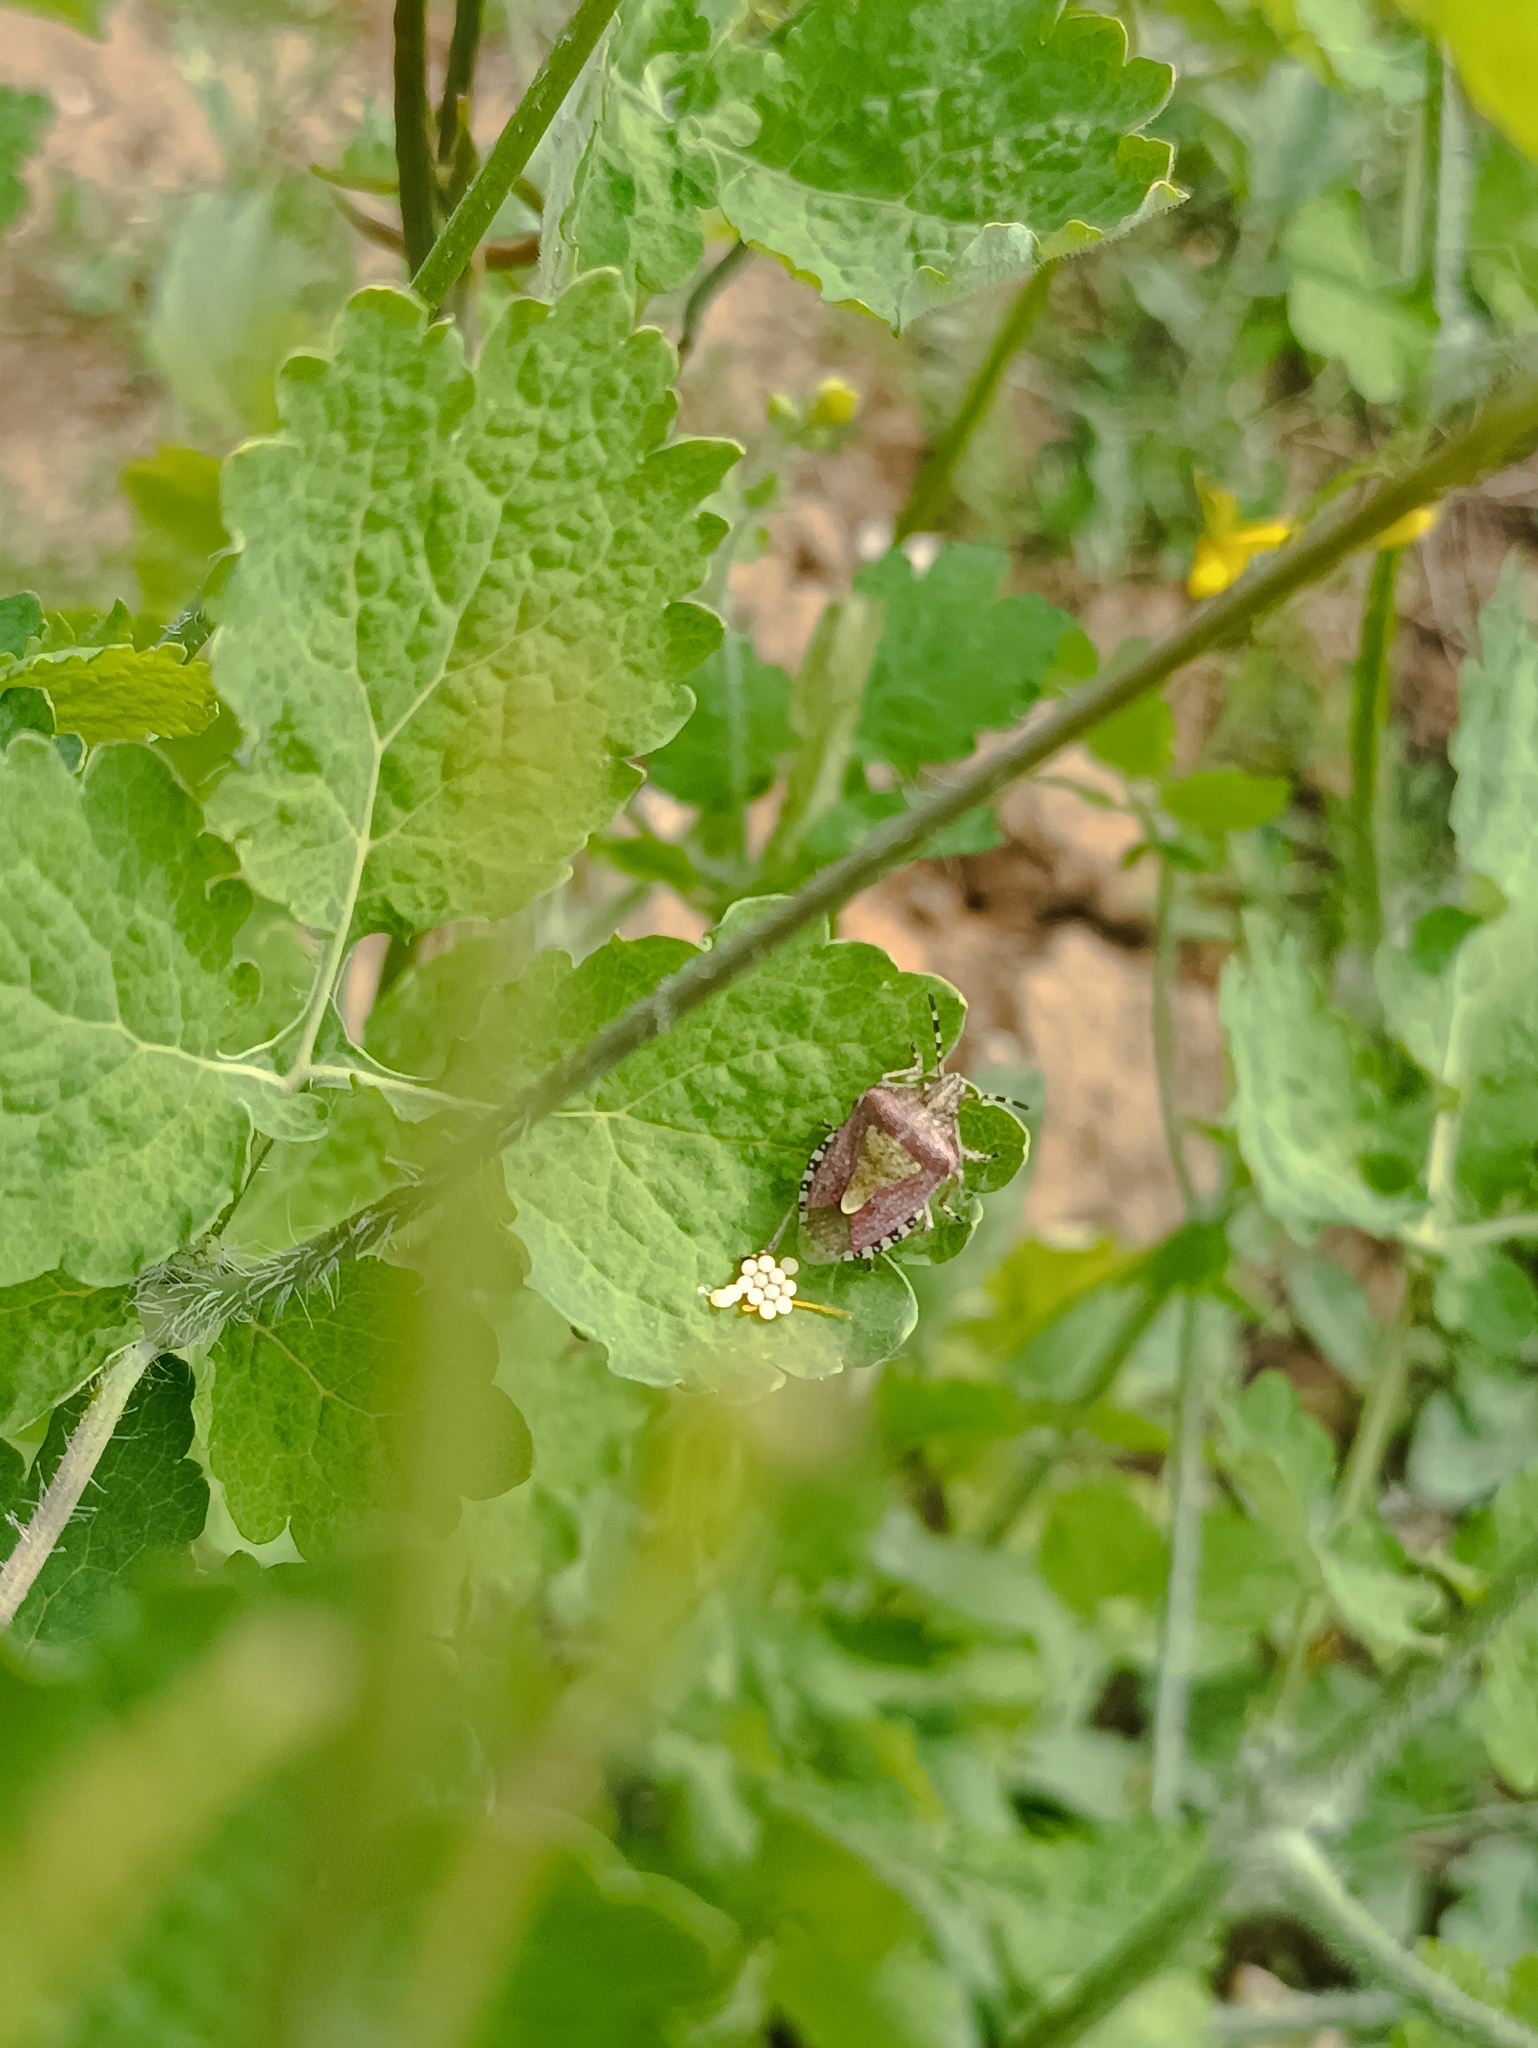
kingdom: Animalia
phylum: Arthropoda
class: Insecta
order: Hemiptera
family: Pentatomidae
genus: Dolycoris
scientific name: Dolycoris baccarum
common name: Sloe bug
